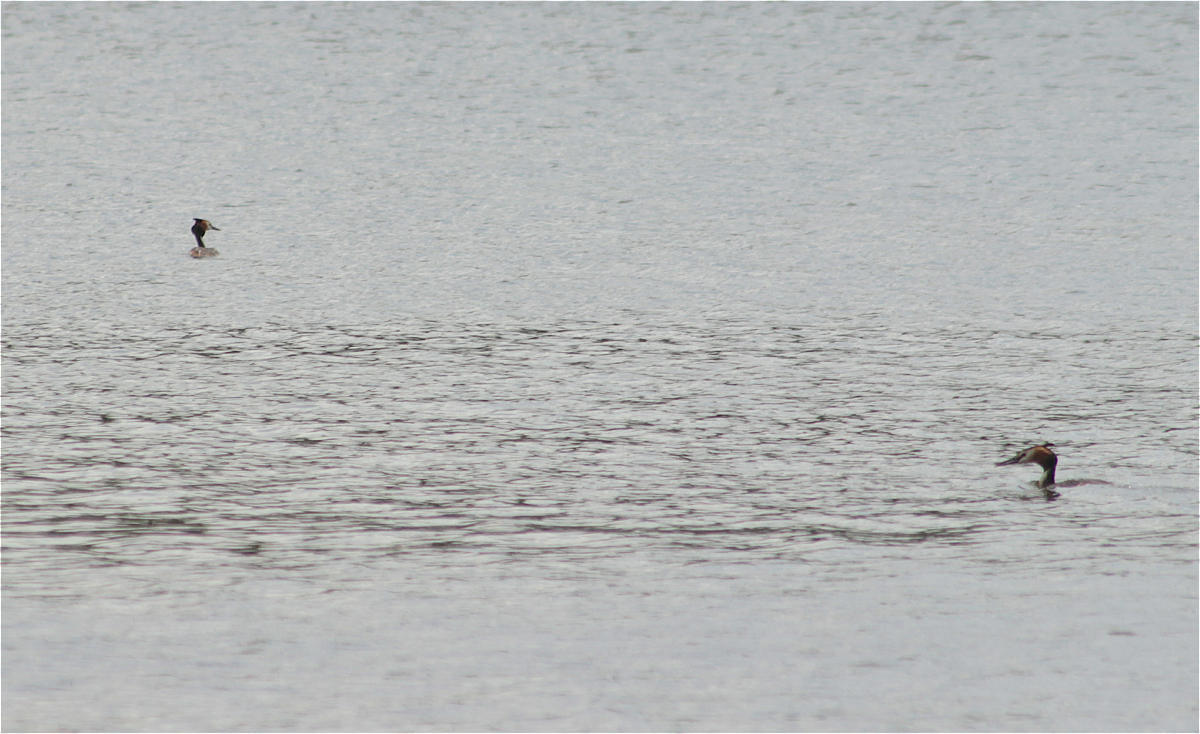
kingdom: Animalia
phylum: Chordata
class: Aves
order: Podicipediformes
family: Podicipedidae
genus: Podiceps
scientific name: Podiceps cristatus
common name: Great crested grebe
